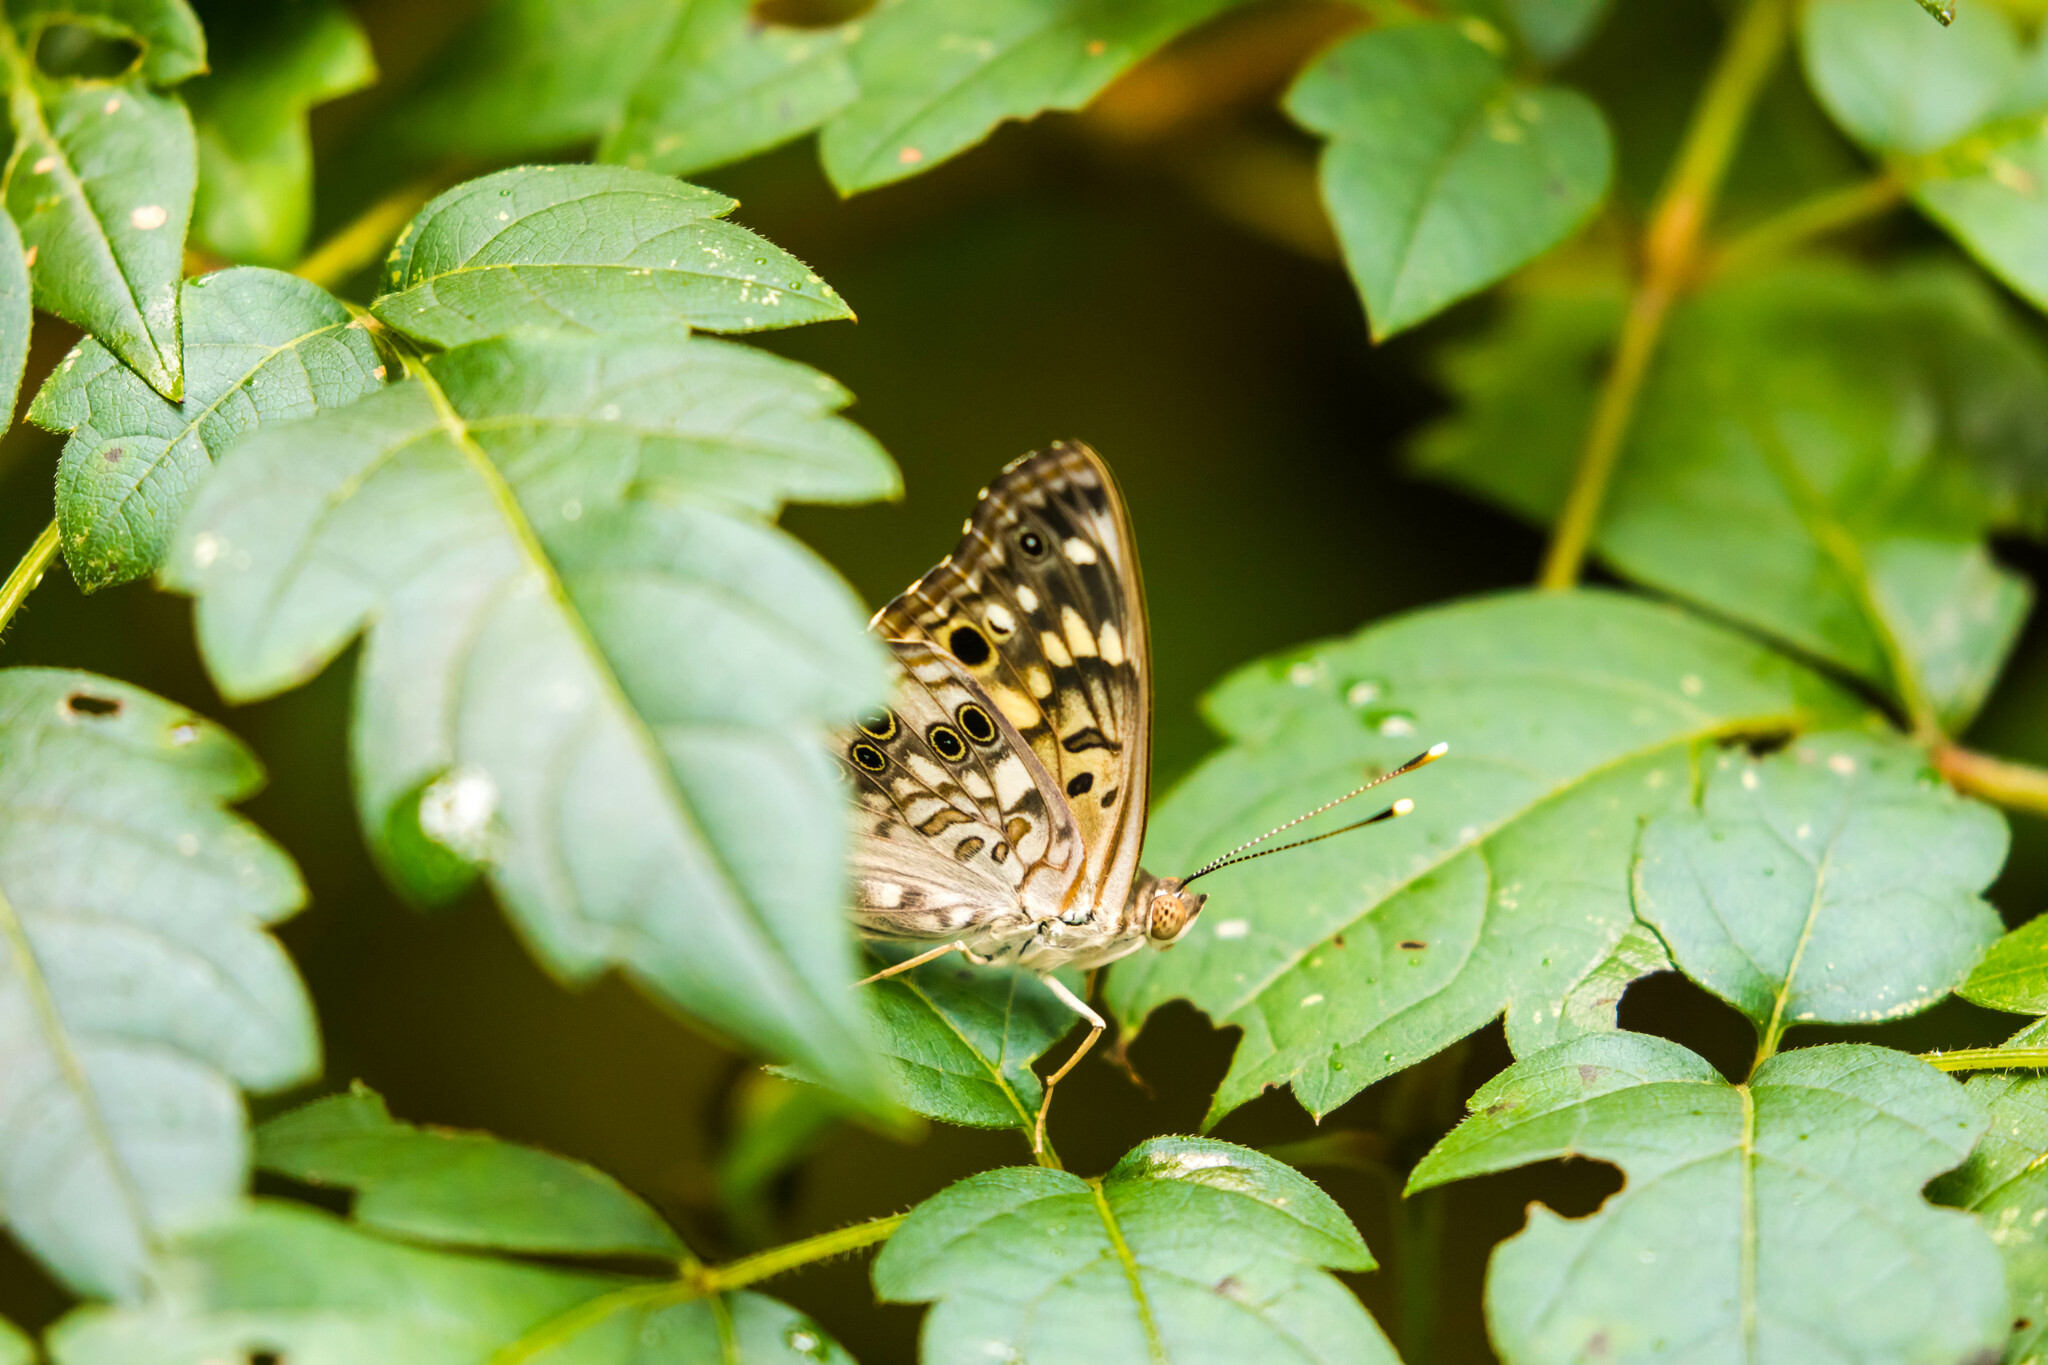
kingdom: Animalia
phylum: Arthropoda
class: Insecta
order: Lepidoptera
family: Nymphalidae
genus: Asterocampa
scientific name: Asterocampa celtis
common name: Hackberry emperor
